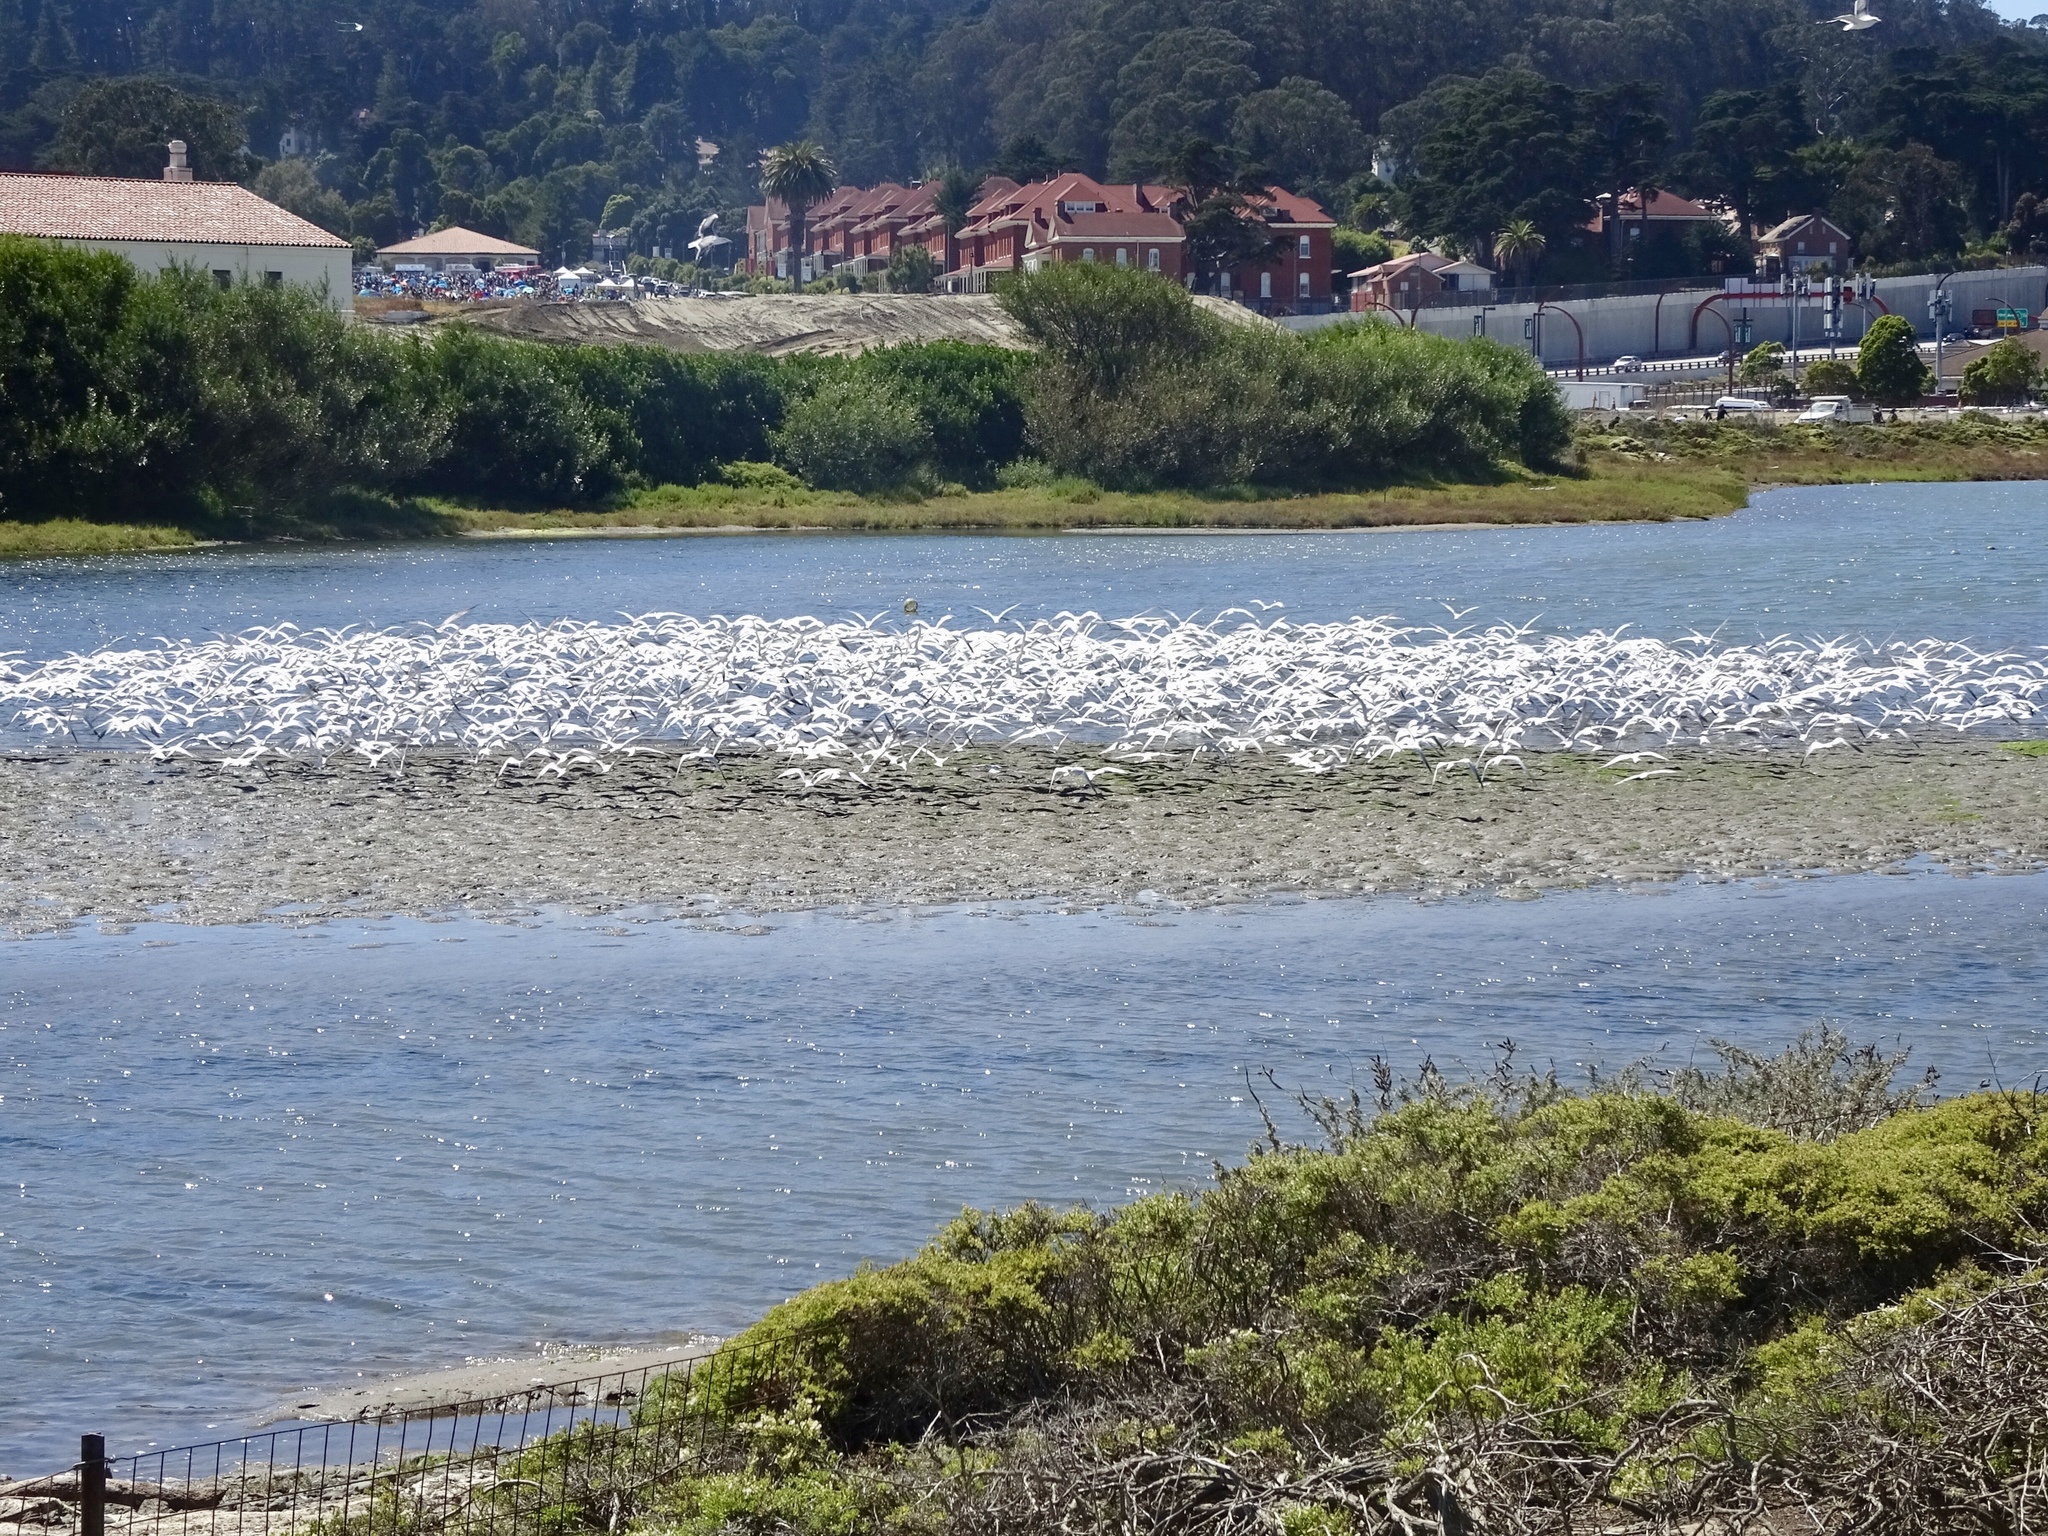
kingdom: Animalia
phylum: Chordata
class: Aves
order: Charadriiformes
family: Laridae
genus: Thalasseus
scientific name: Thalasseus elegans
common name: Elegant tern
